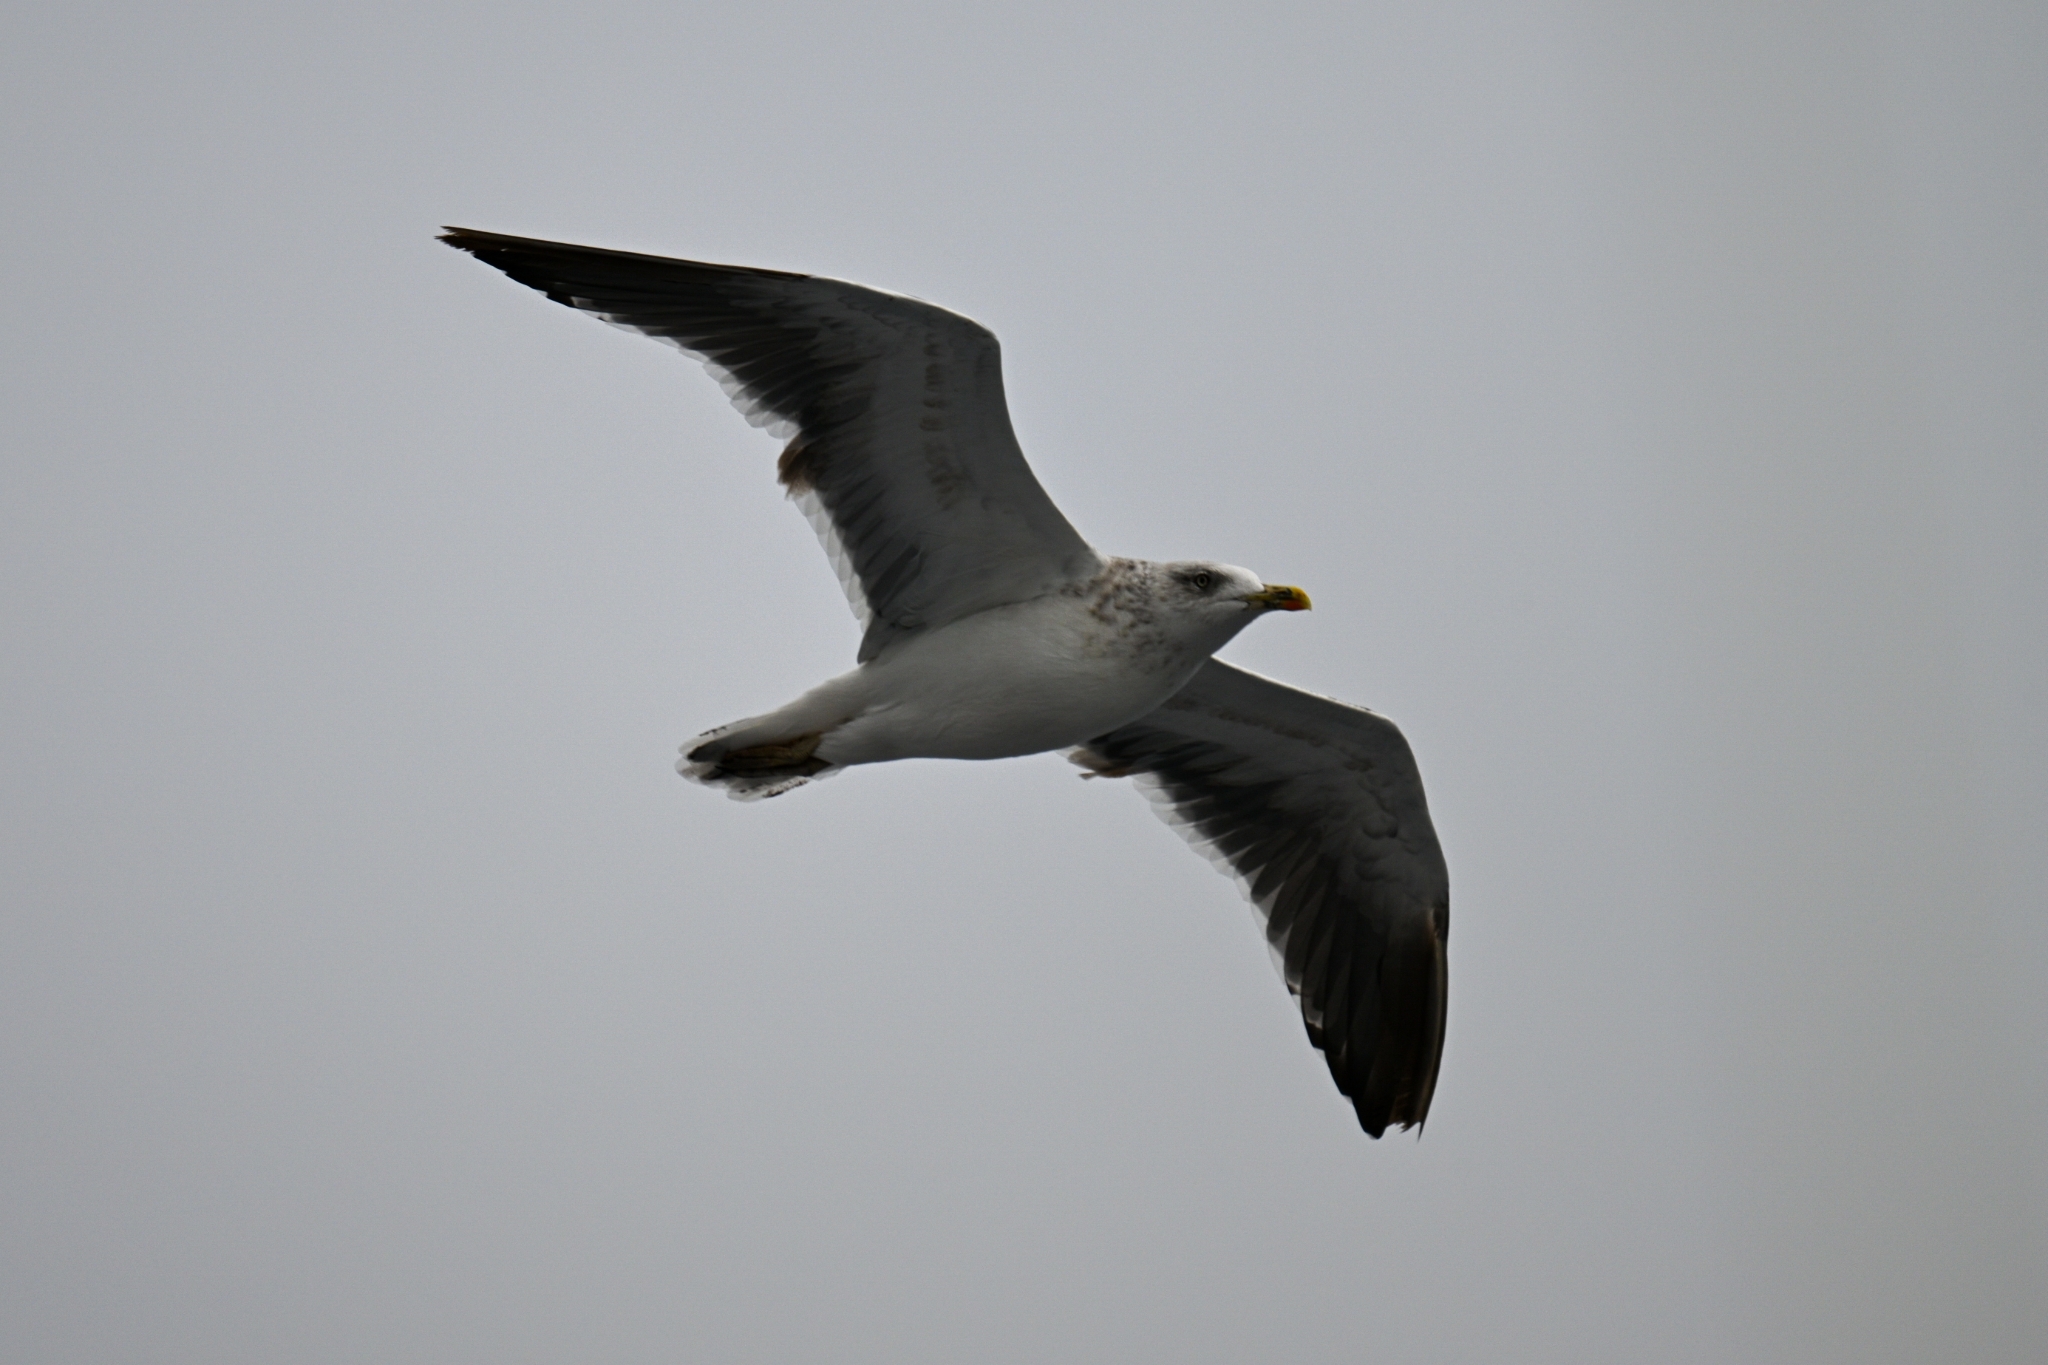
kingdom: Animalia
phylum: Chordata
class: Aves
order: Charadriiformes
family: Laridae
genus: Larus
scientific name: Larus fuscus
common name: Lesser black-backed gull
